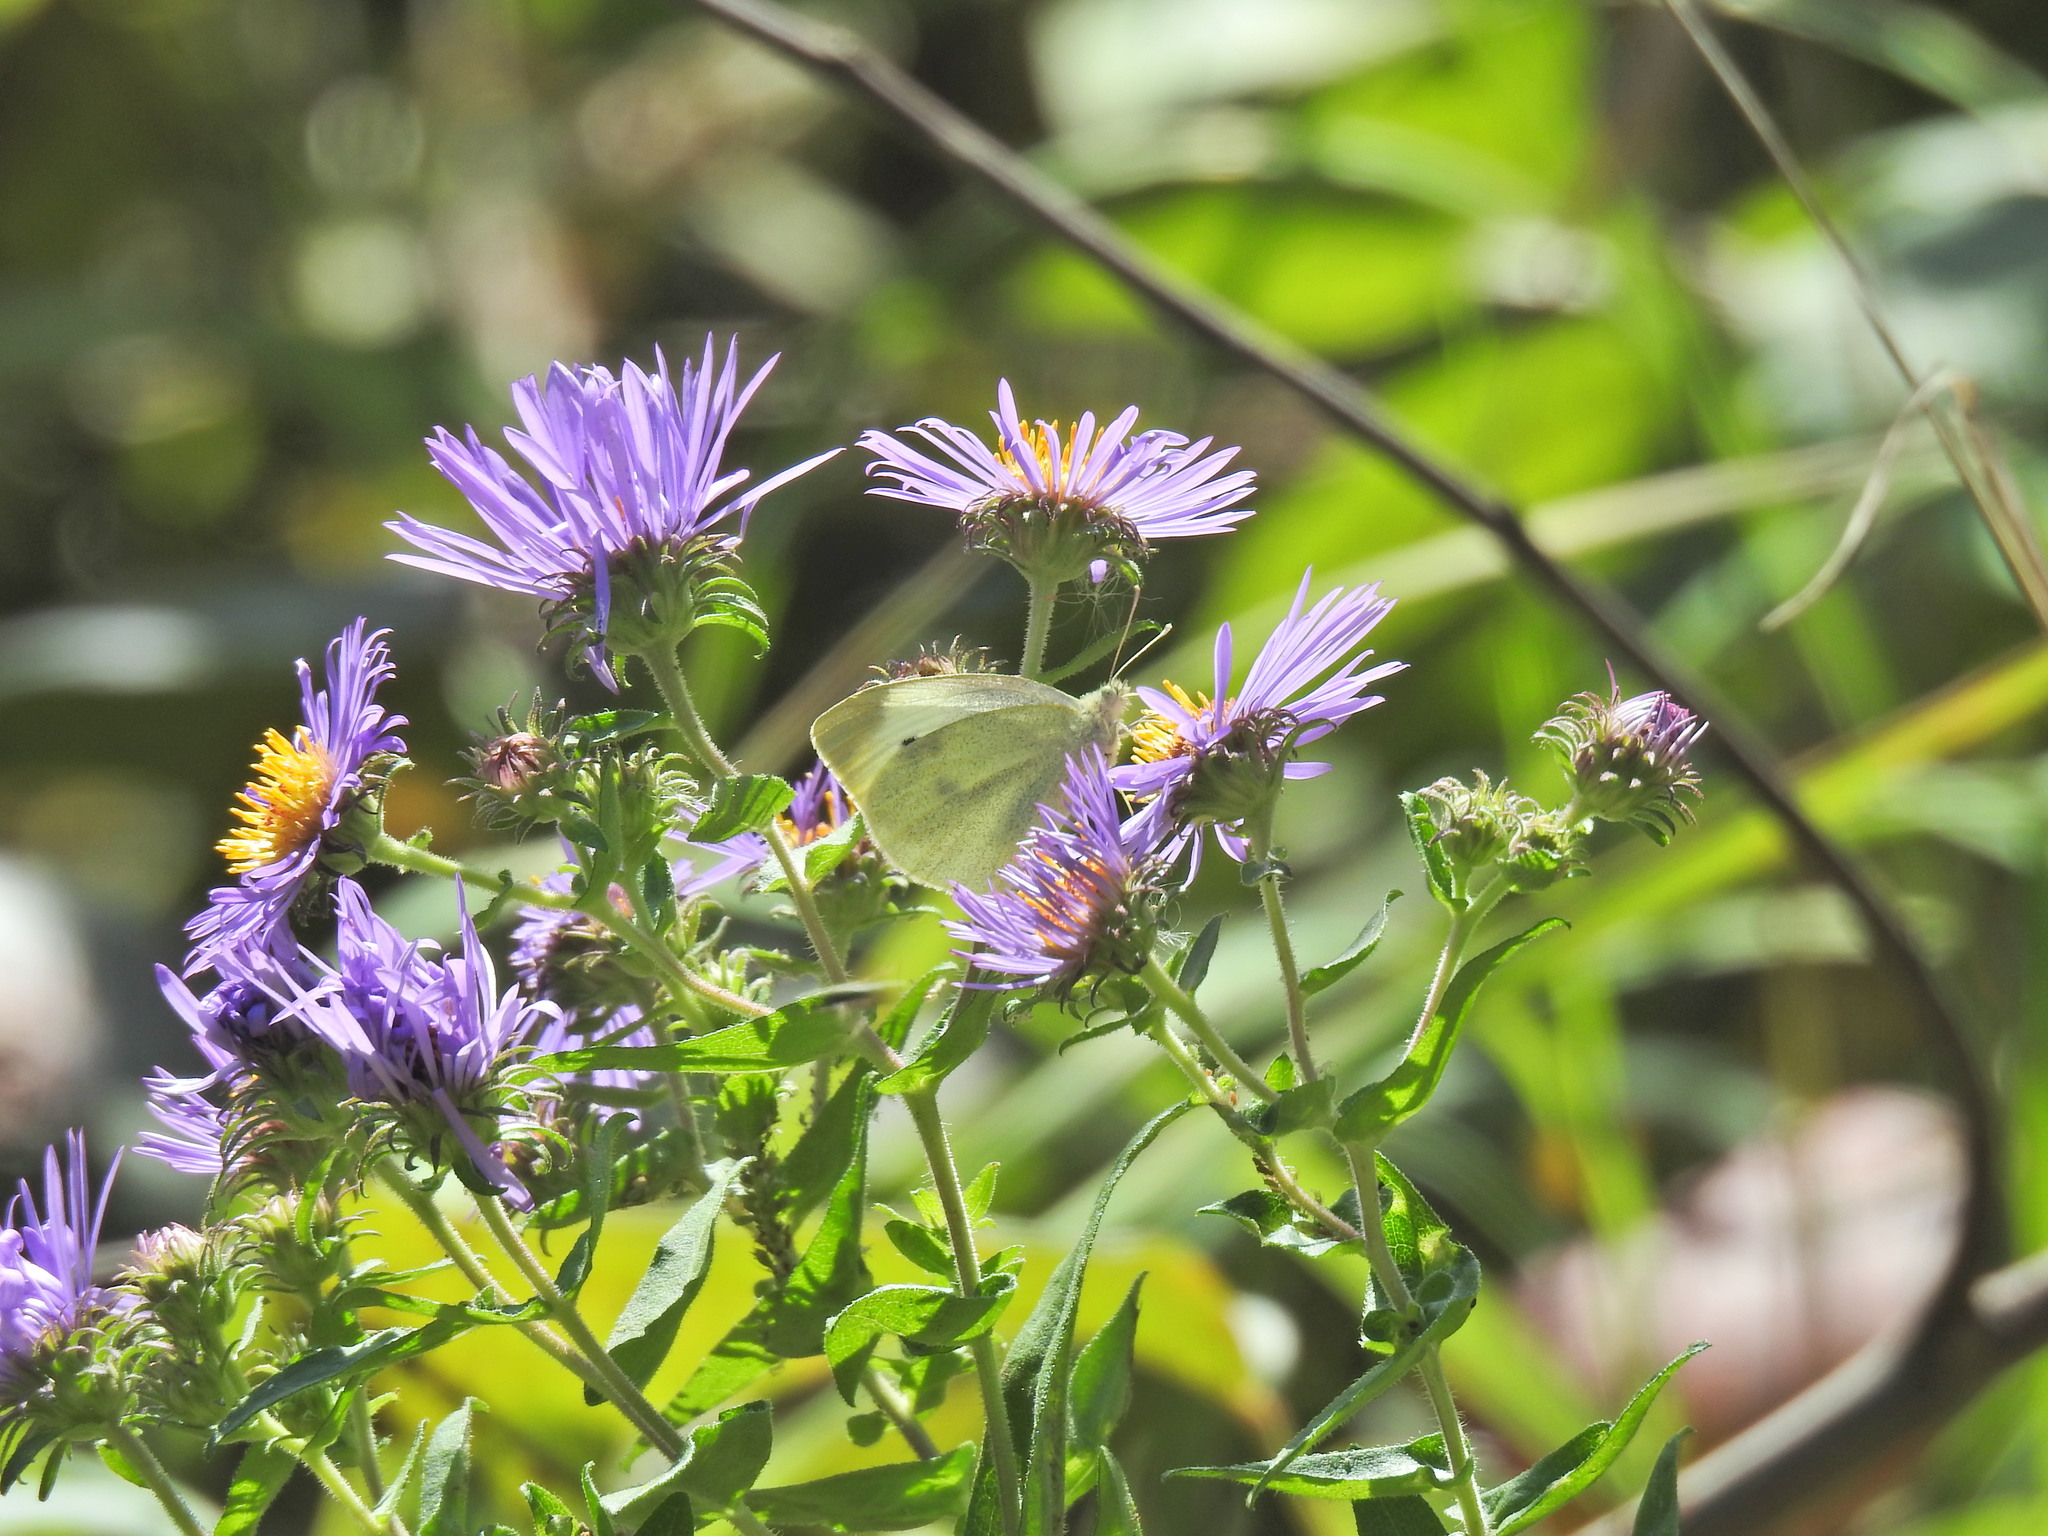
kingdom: Animalia
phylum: Arthropoda
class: Insecta
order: Lepidoptera
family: Pieridae
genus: Pieris
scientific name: Pieris rapae
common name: Small white
